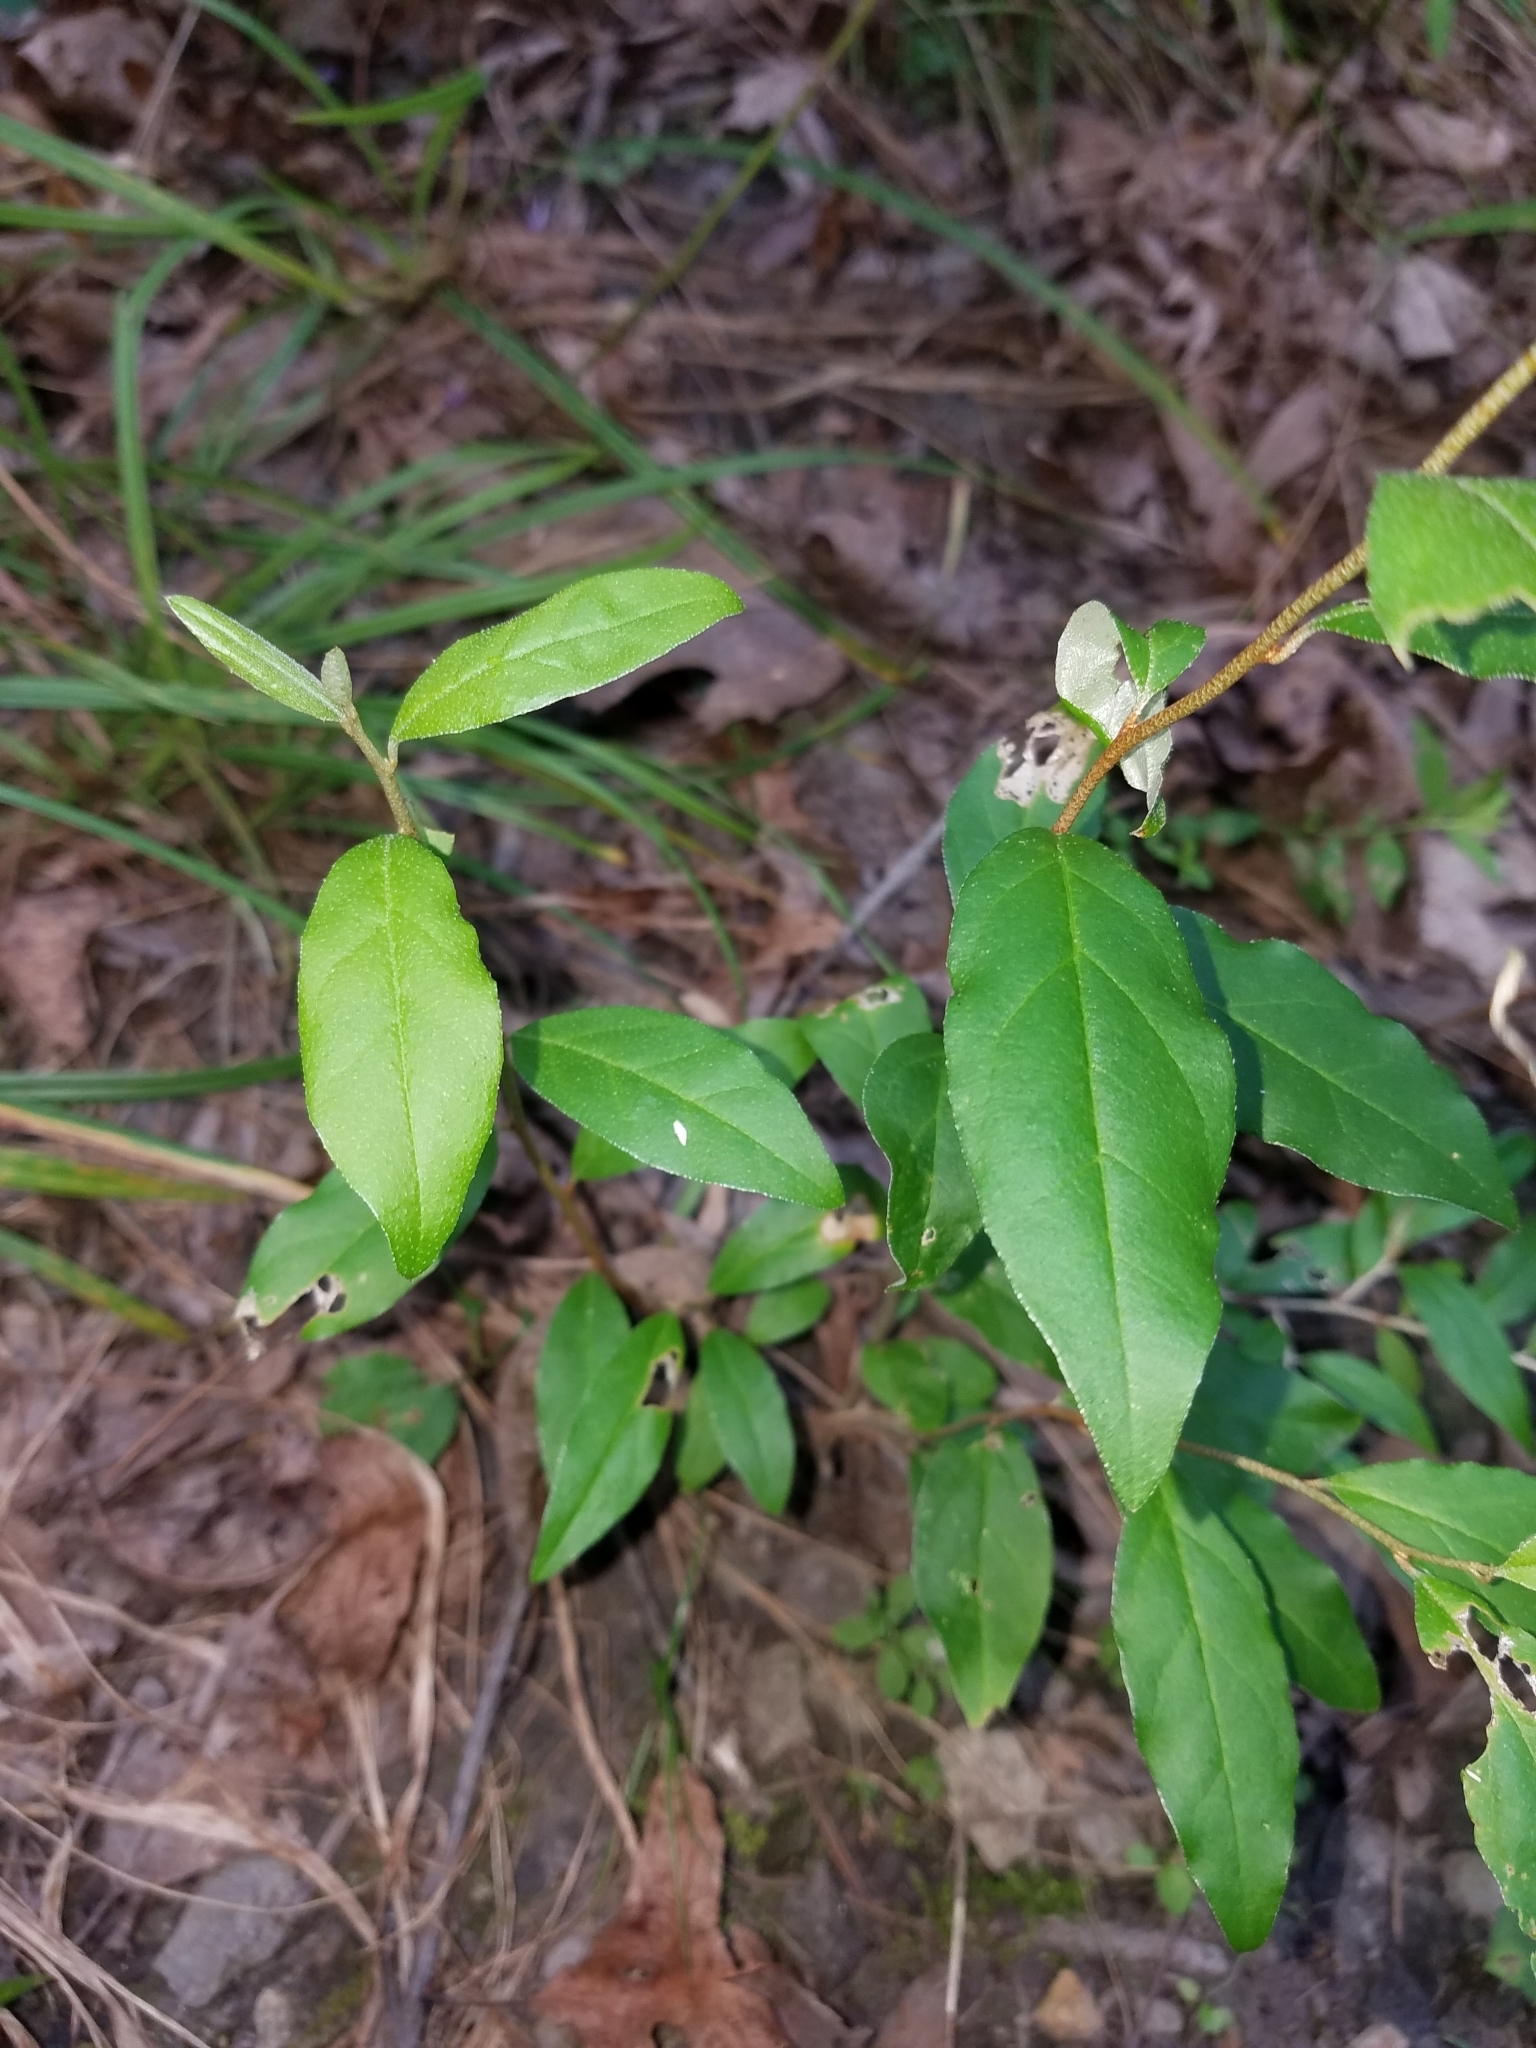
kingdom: Plantae
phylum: Tracheophyta
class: Magnoliopsida
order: Rosales
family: Elaeagnaceae
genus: Elaeagnus
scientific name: Elaeagnus umbellata
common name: Autumn olive
